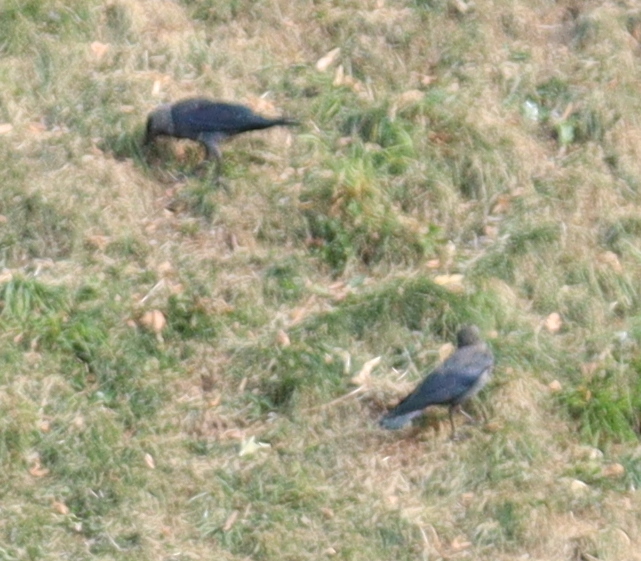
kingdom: Animalia
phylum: Chordata
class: Aves
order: Passeriformes
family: Corvidae
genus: Coloeus
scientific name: Coloeus monedula
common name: Western jackdaw
